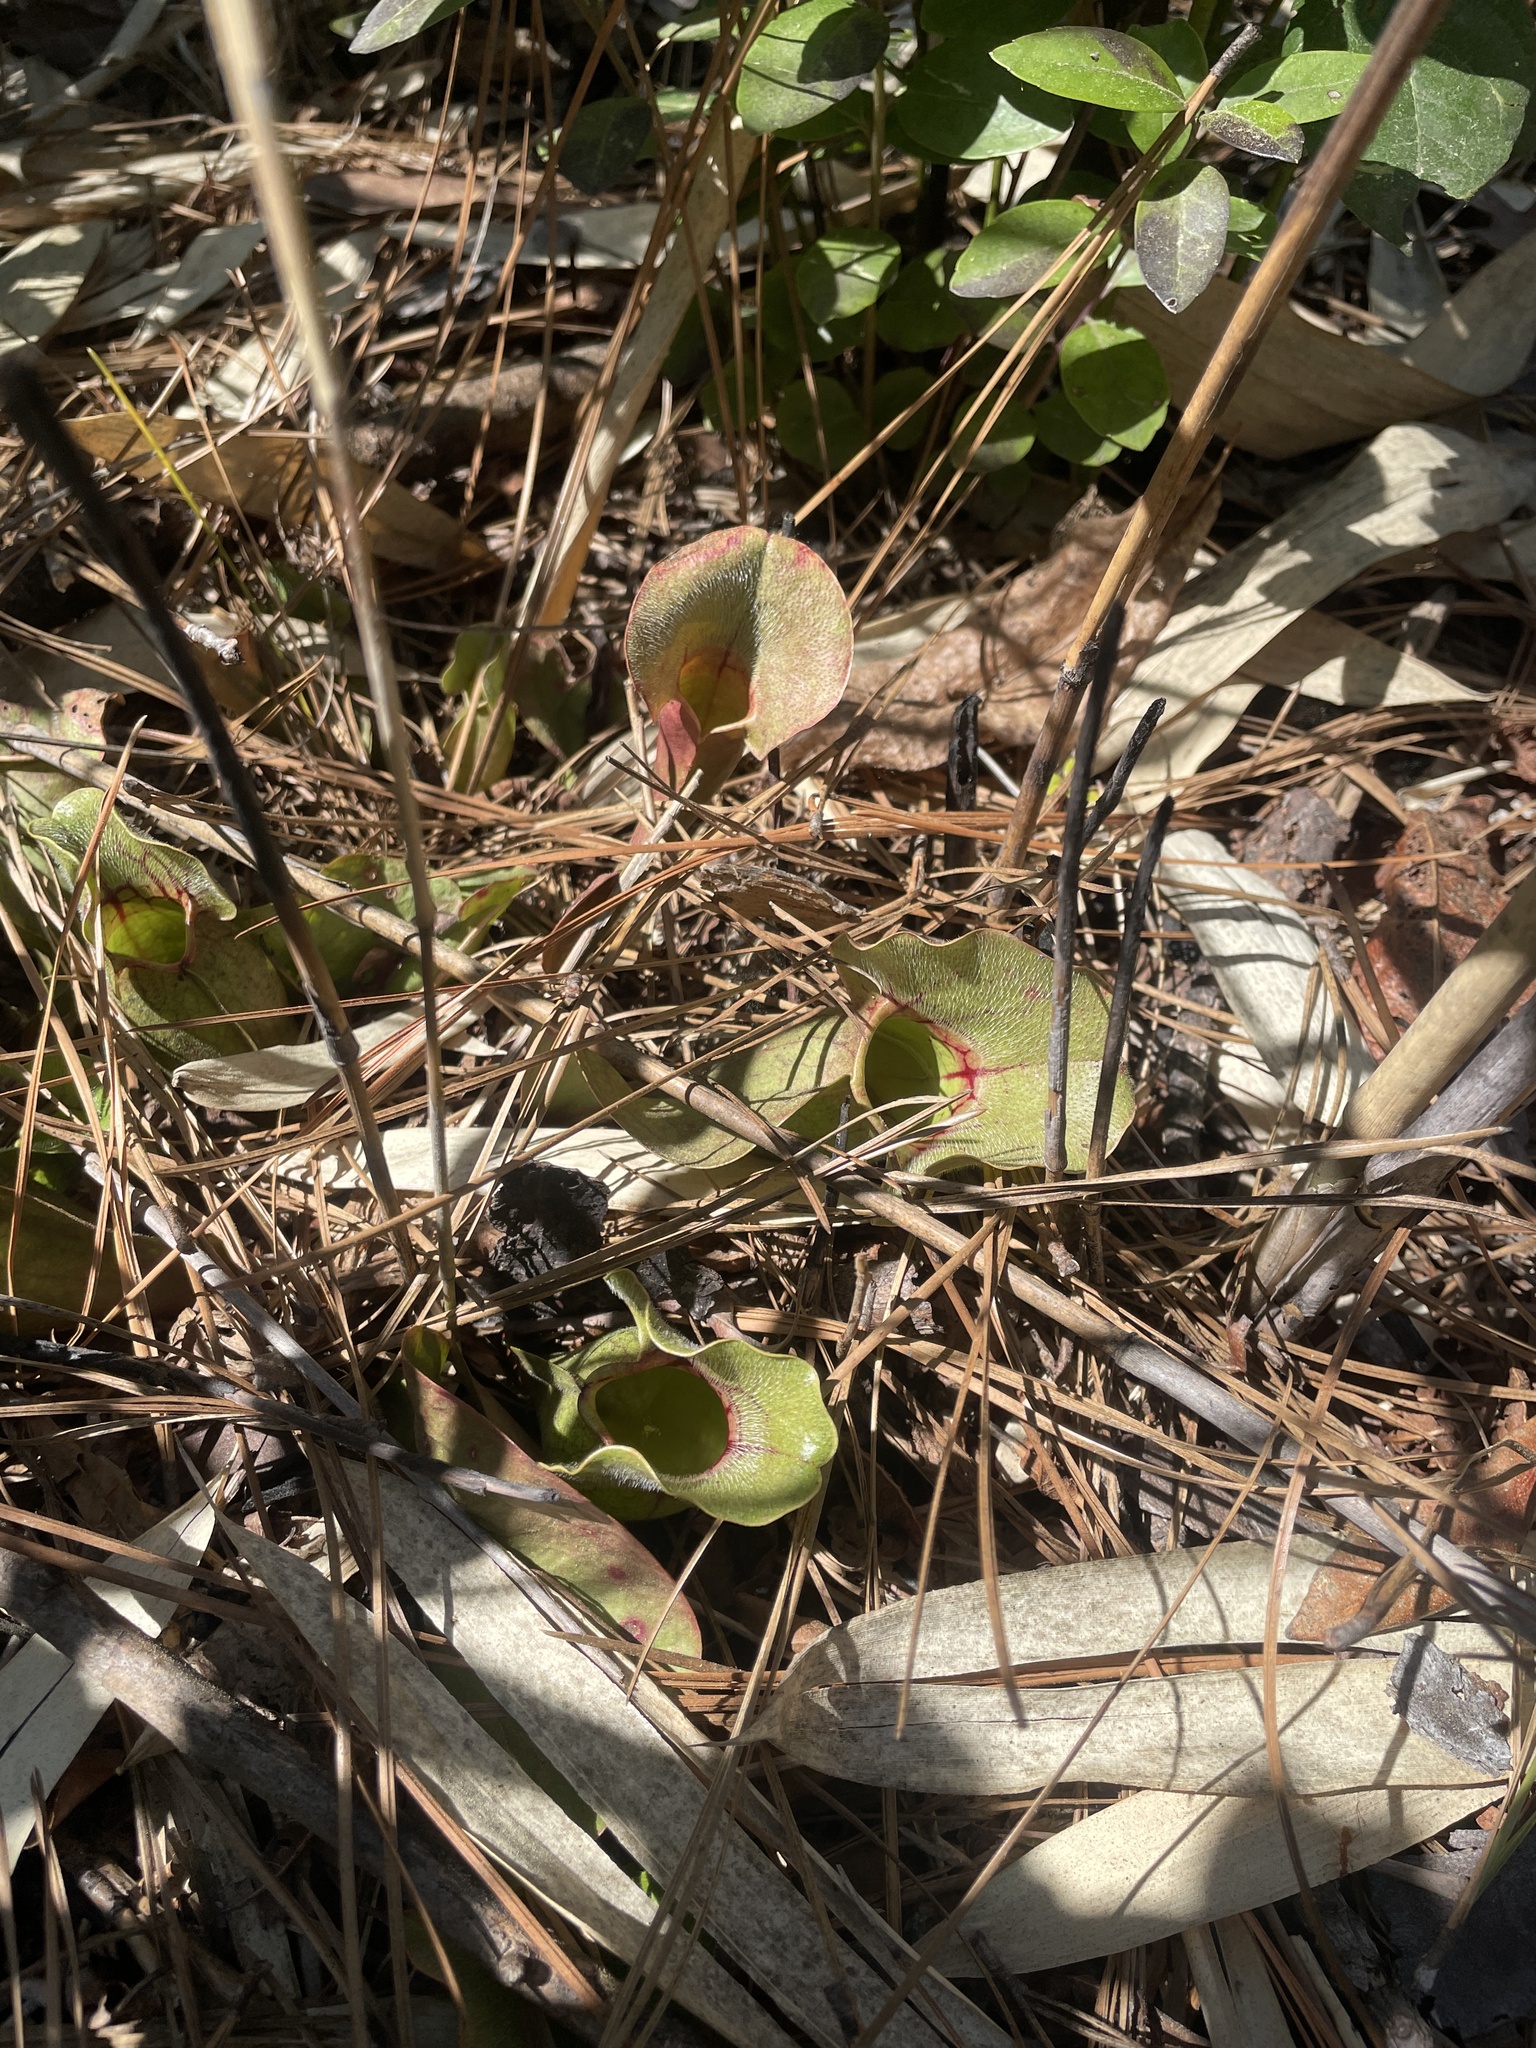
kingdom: Plantae
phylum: Tracheophyta
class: Magnoliopsida
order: Ericales
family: Sarraceniaceae
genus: Sarracenia
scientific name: Sarracenia purpurea
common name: Pitcherplant
